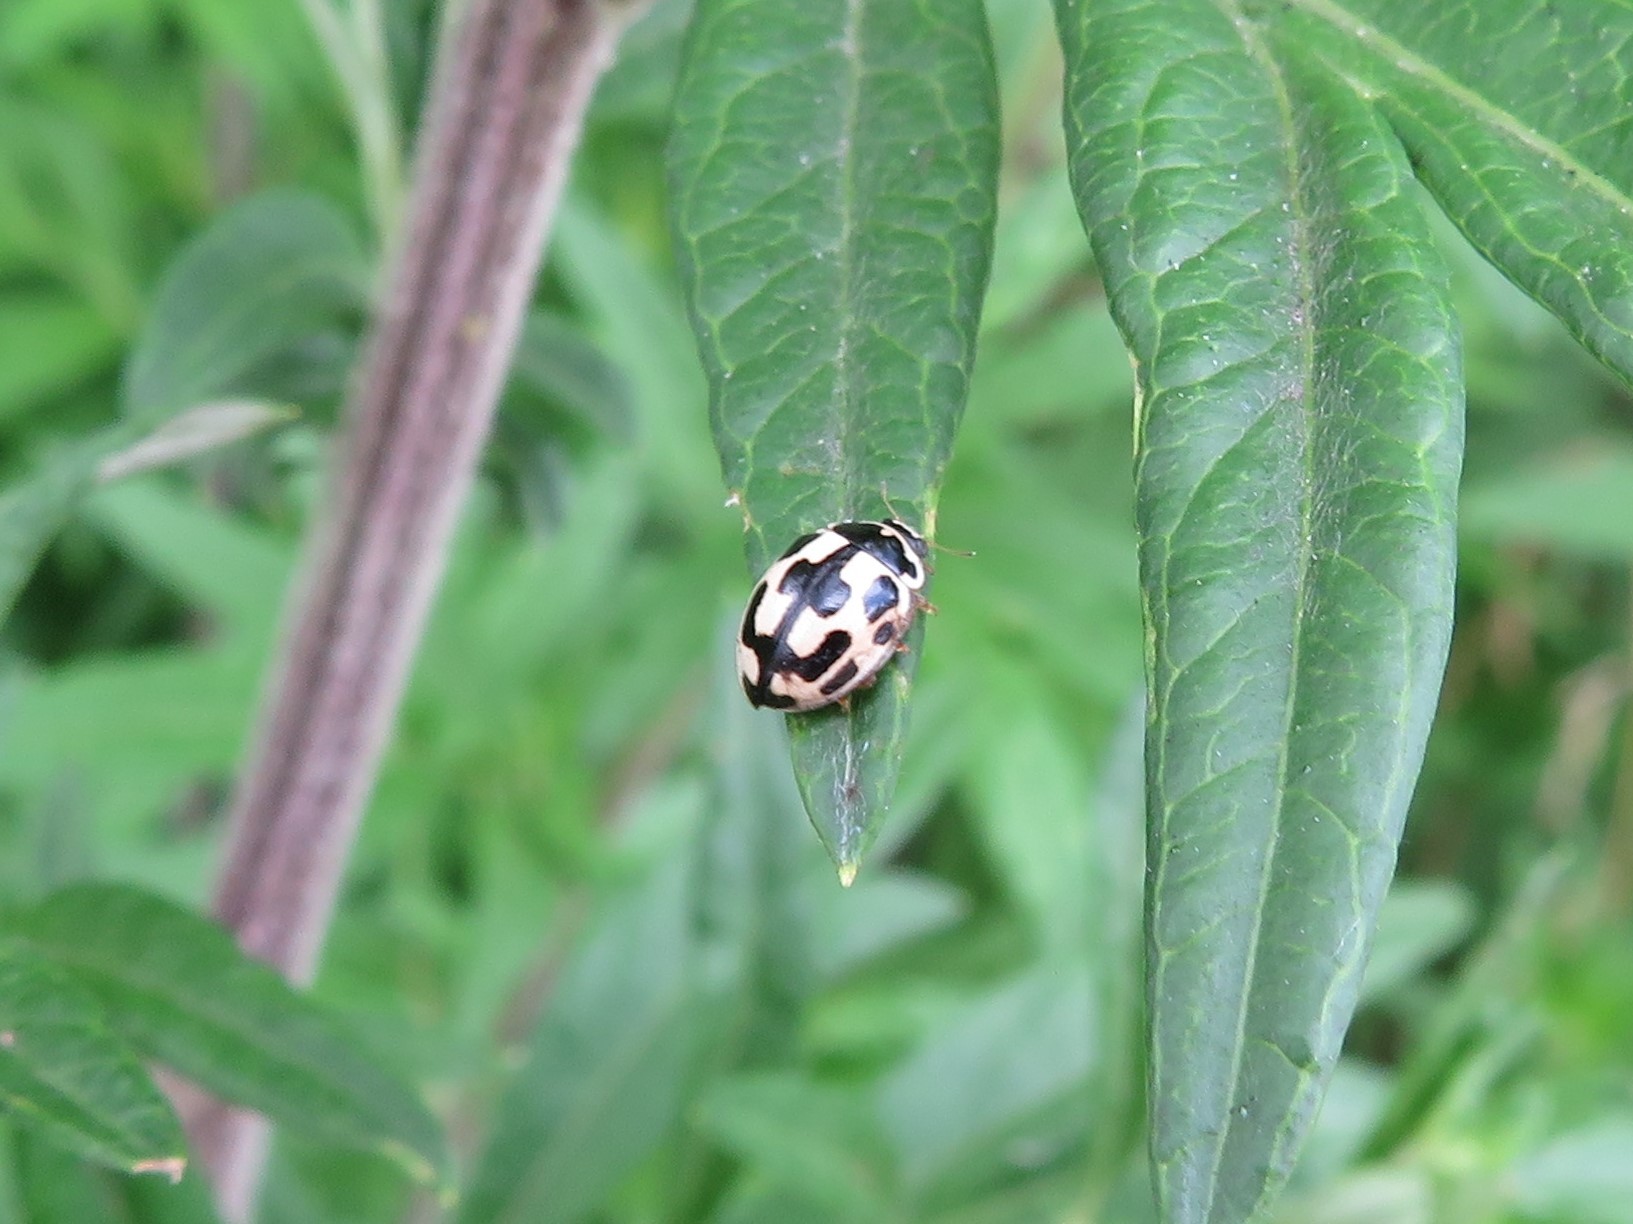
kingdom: Animalia
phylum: Arthropoda
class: Insecta
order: Coleoptera
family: Coccinellidae
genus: Propylaea
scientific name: Propylaea quatuordecimpunctata
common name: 14-spotted ladybird beetle
